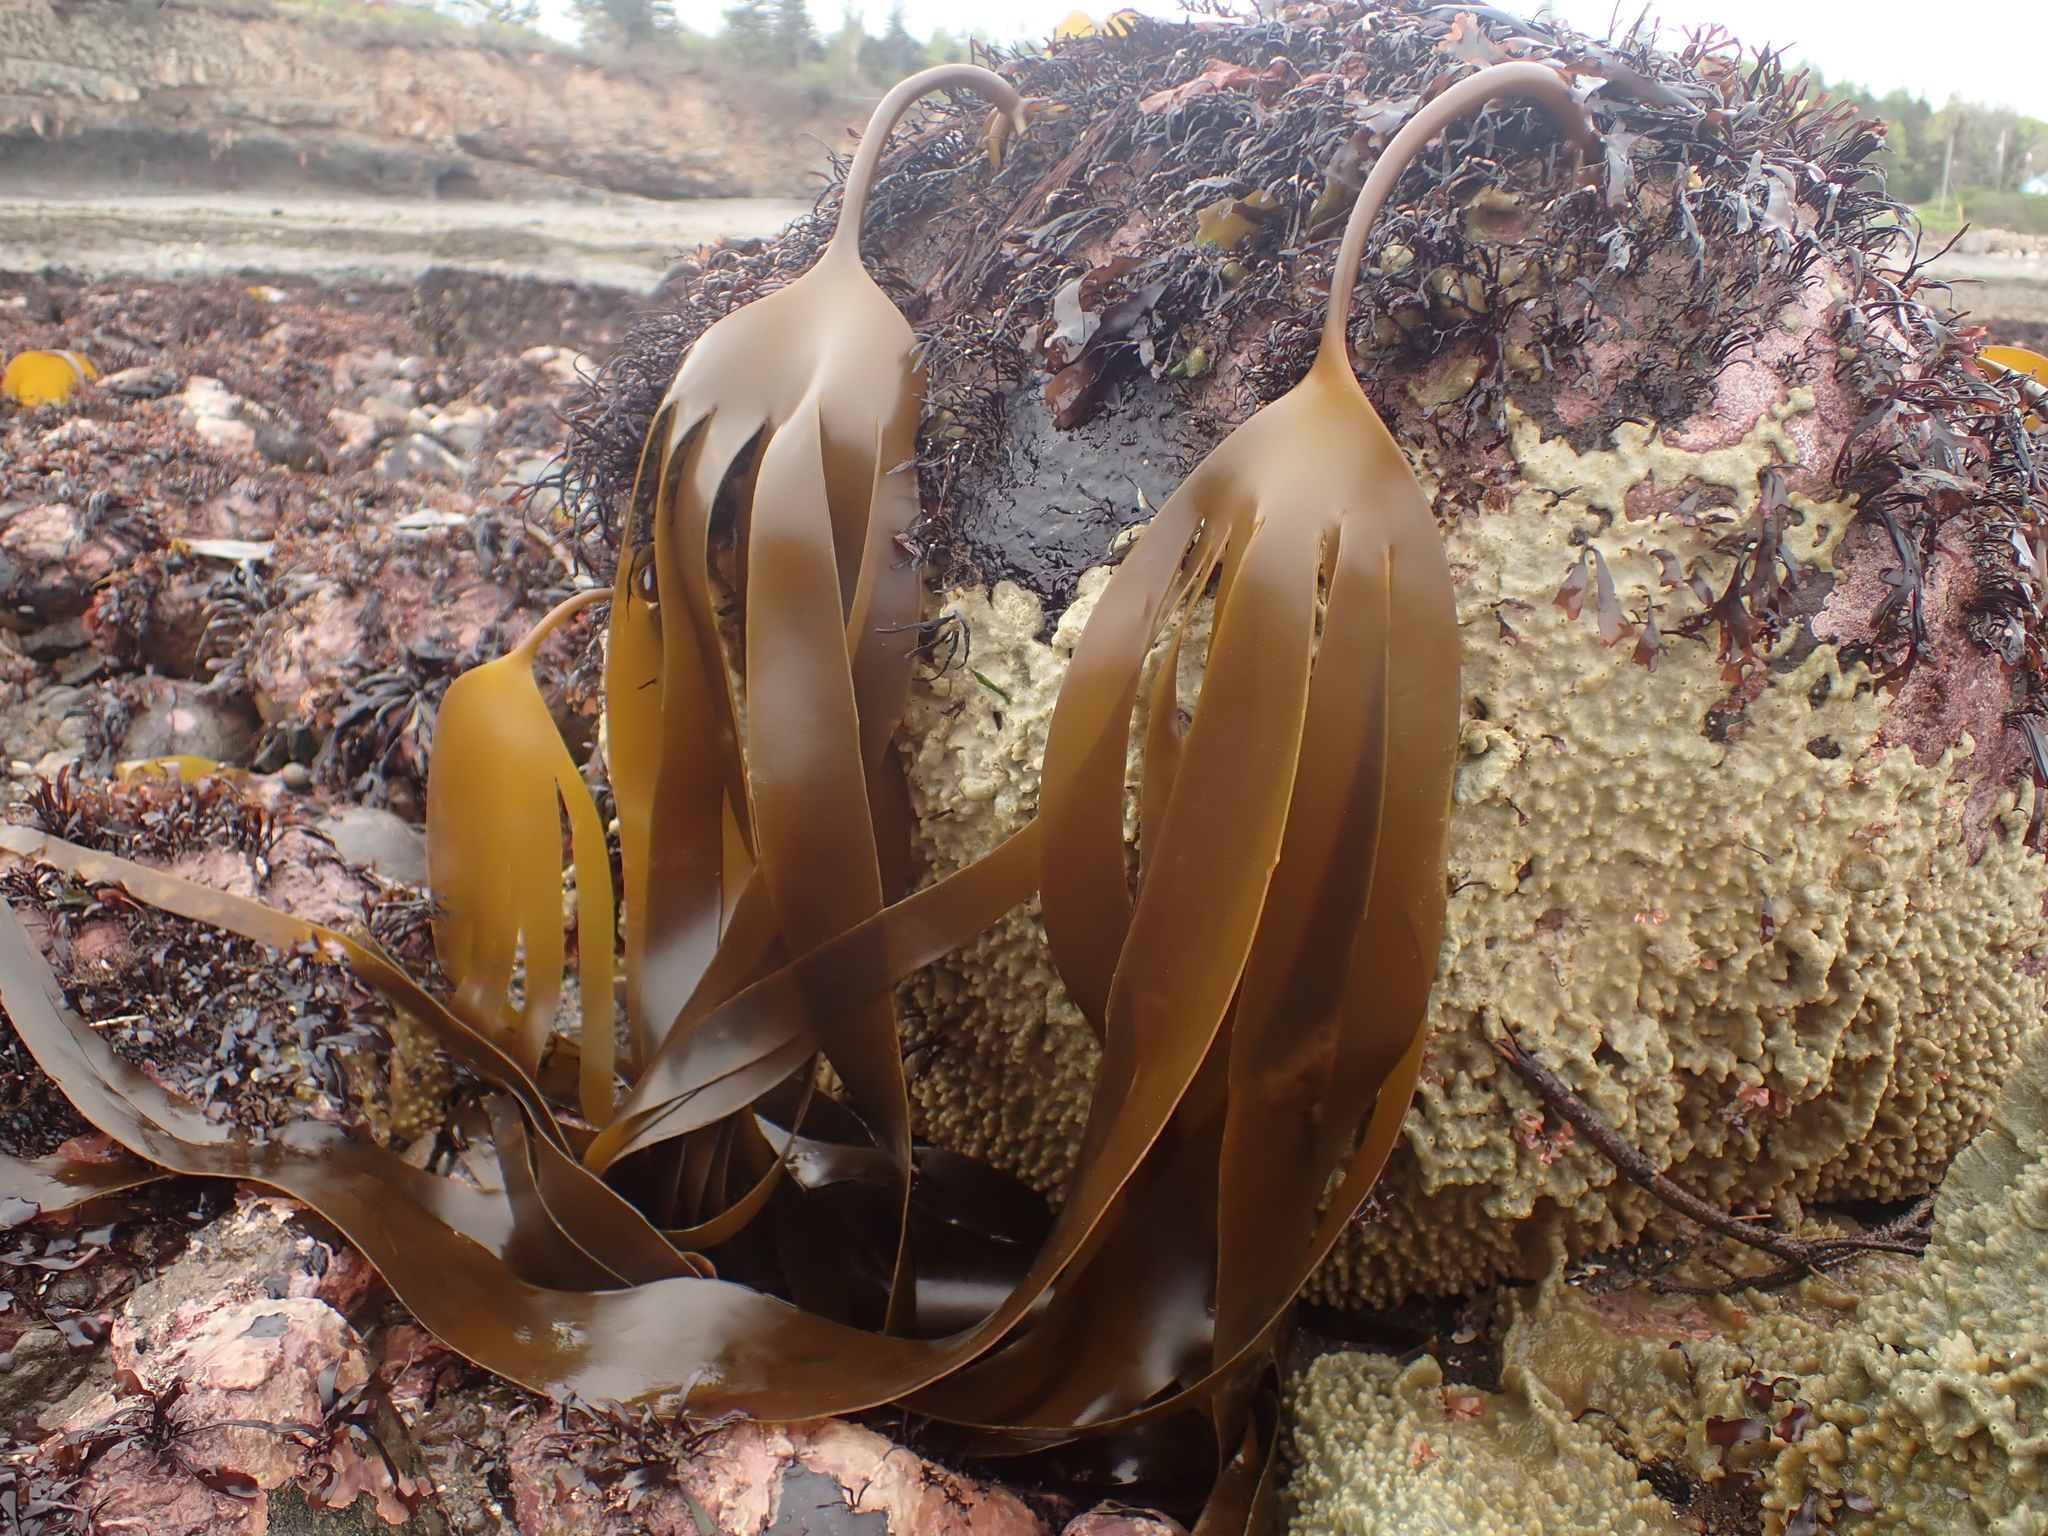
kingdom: Chromista
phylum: Ochrophyta
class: Phaeophyceae
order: Laminariales
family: Laminariaceae
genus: Laminaria
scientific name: Laminaria digitata
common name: Oarweed
